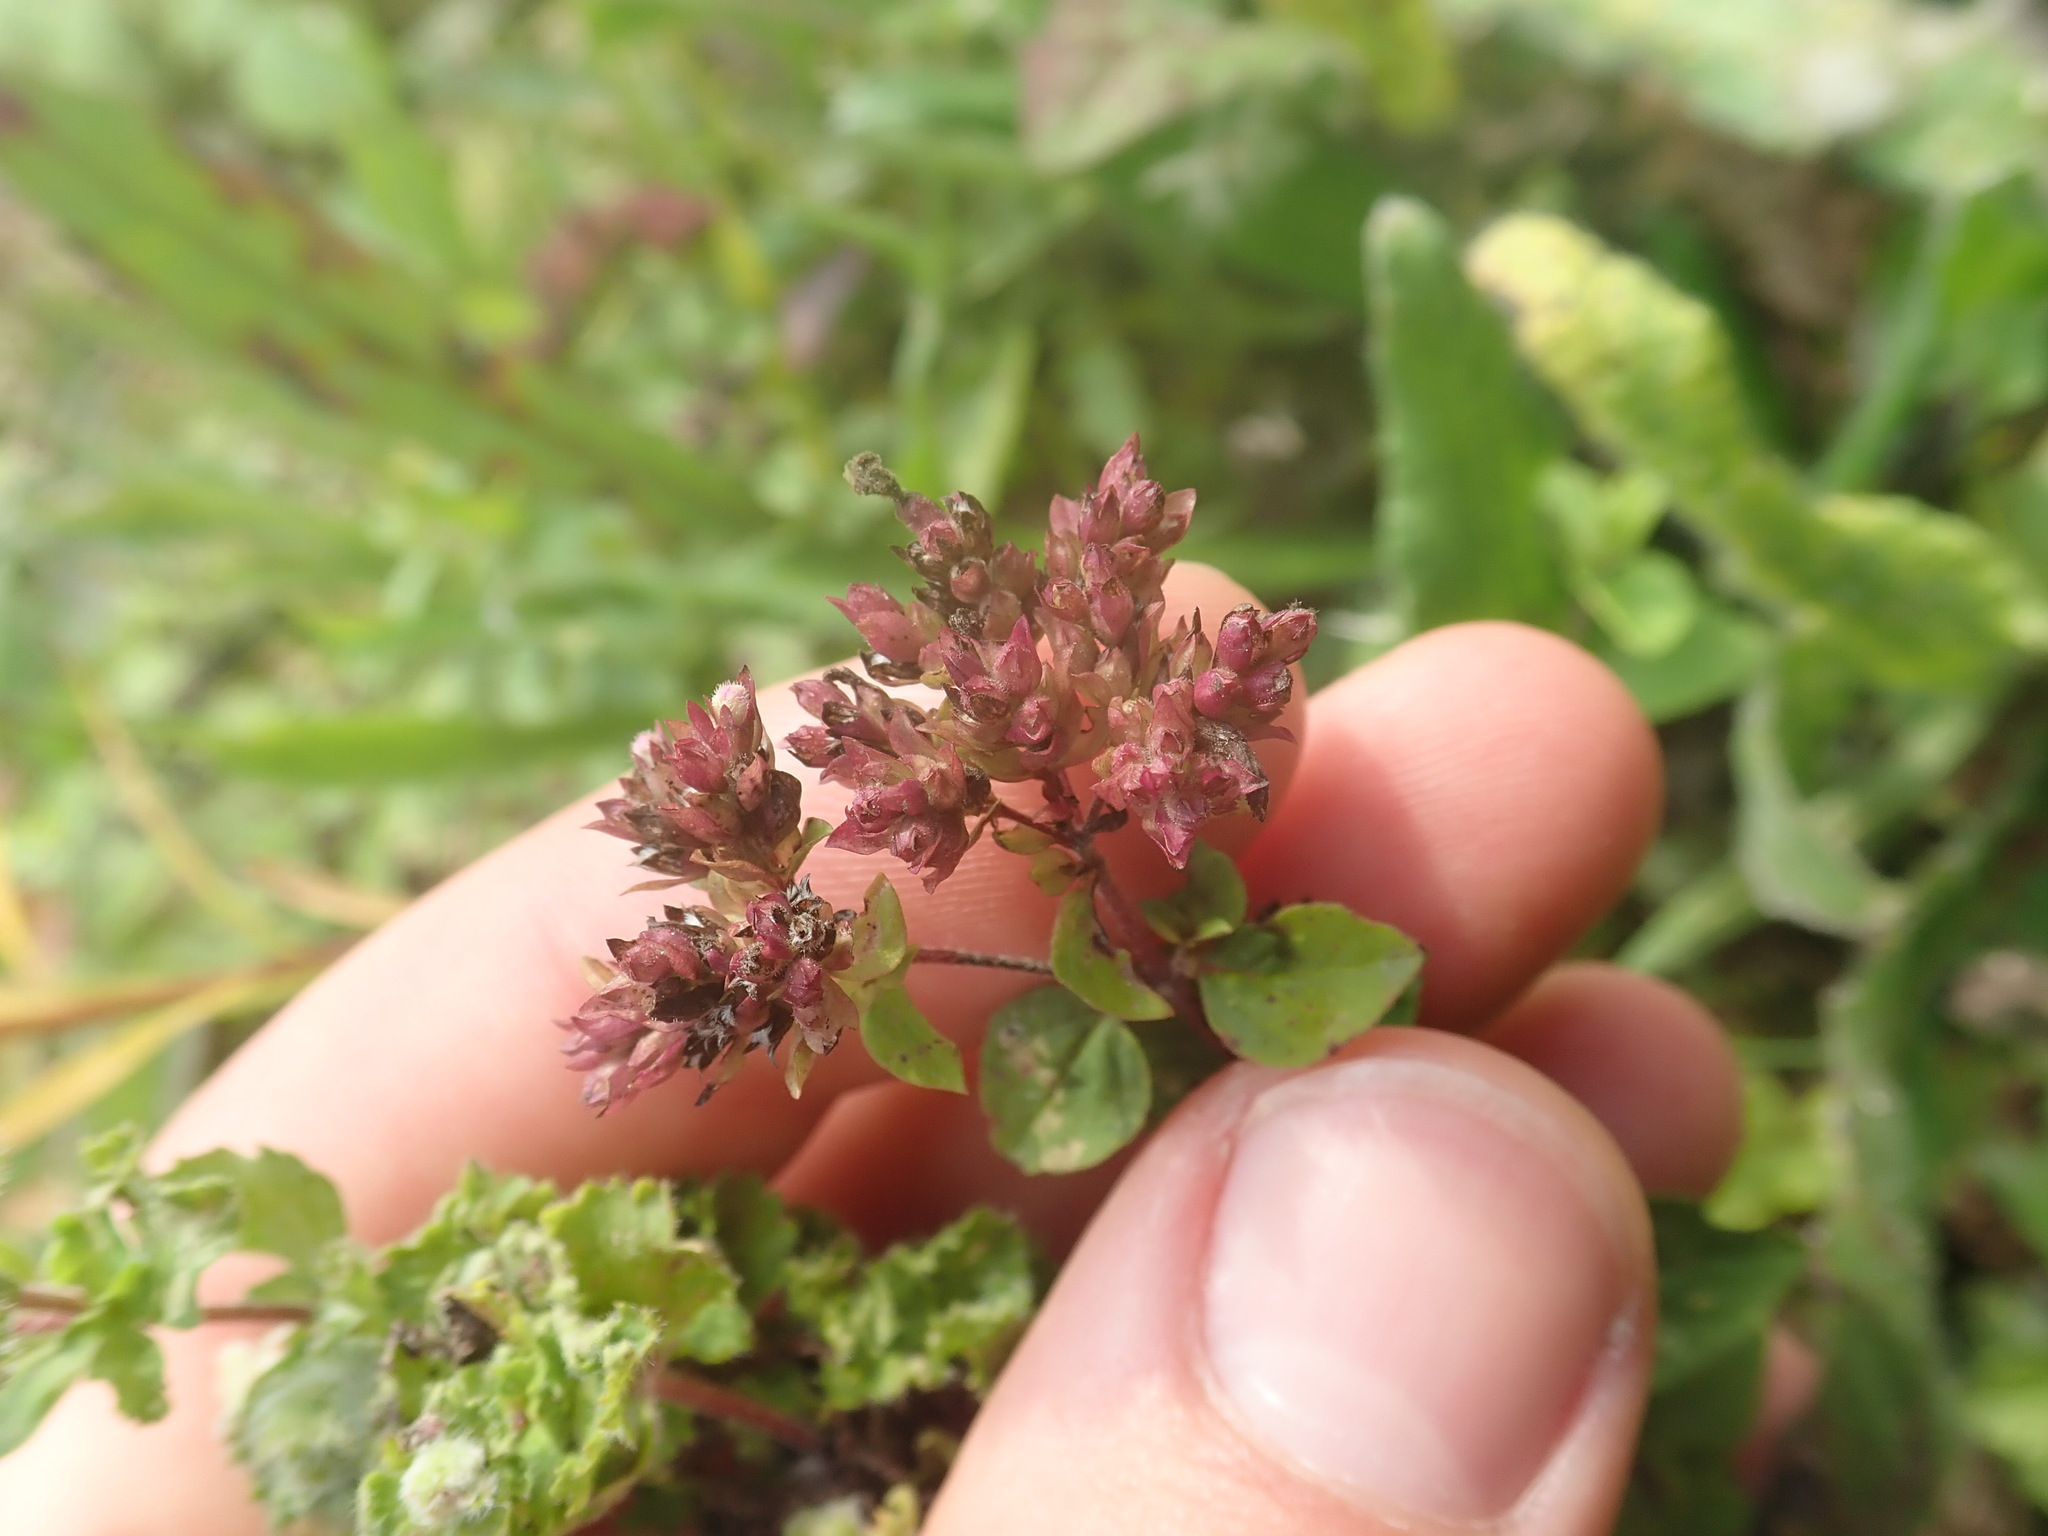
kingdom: Plantae
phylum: Tracheophyta
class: Magnoliopsida
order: Lamiales
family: Lamiaceae
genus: Origanum
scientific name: Origanum vulgare
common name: Wild marjoram
